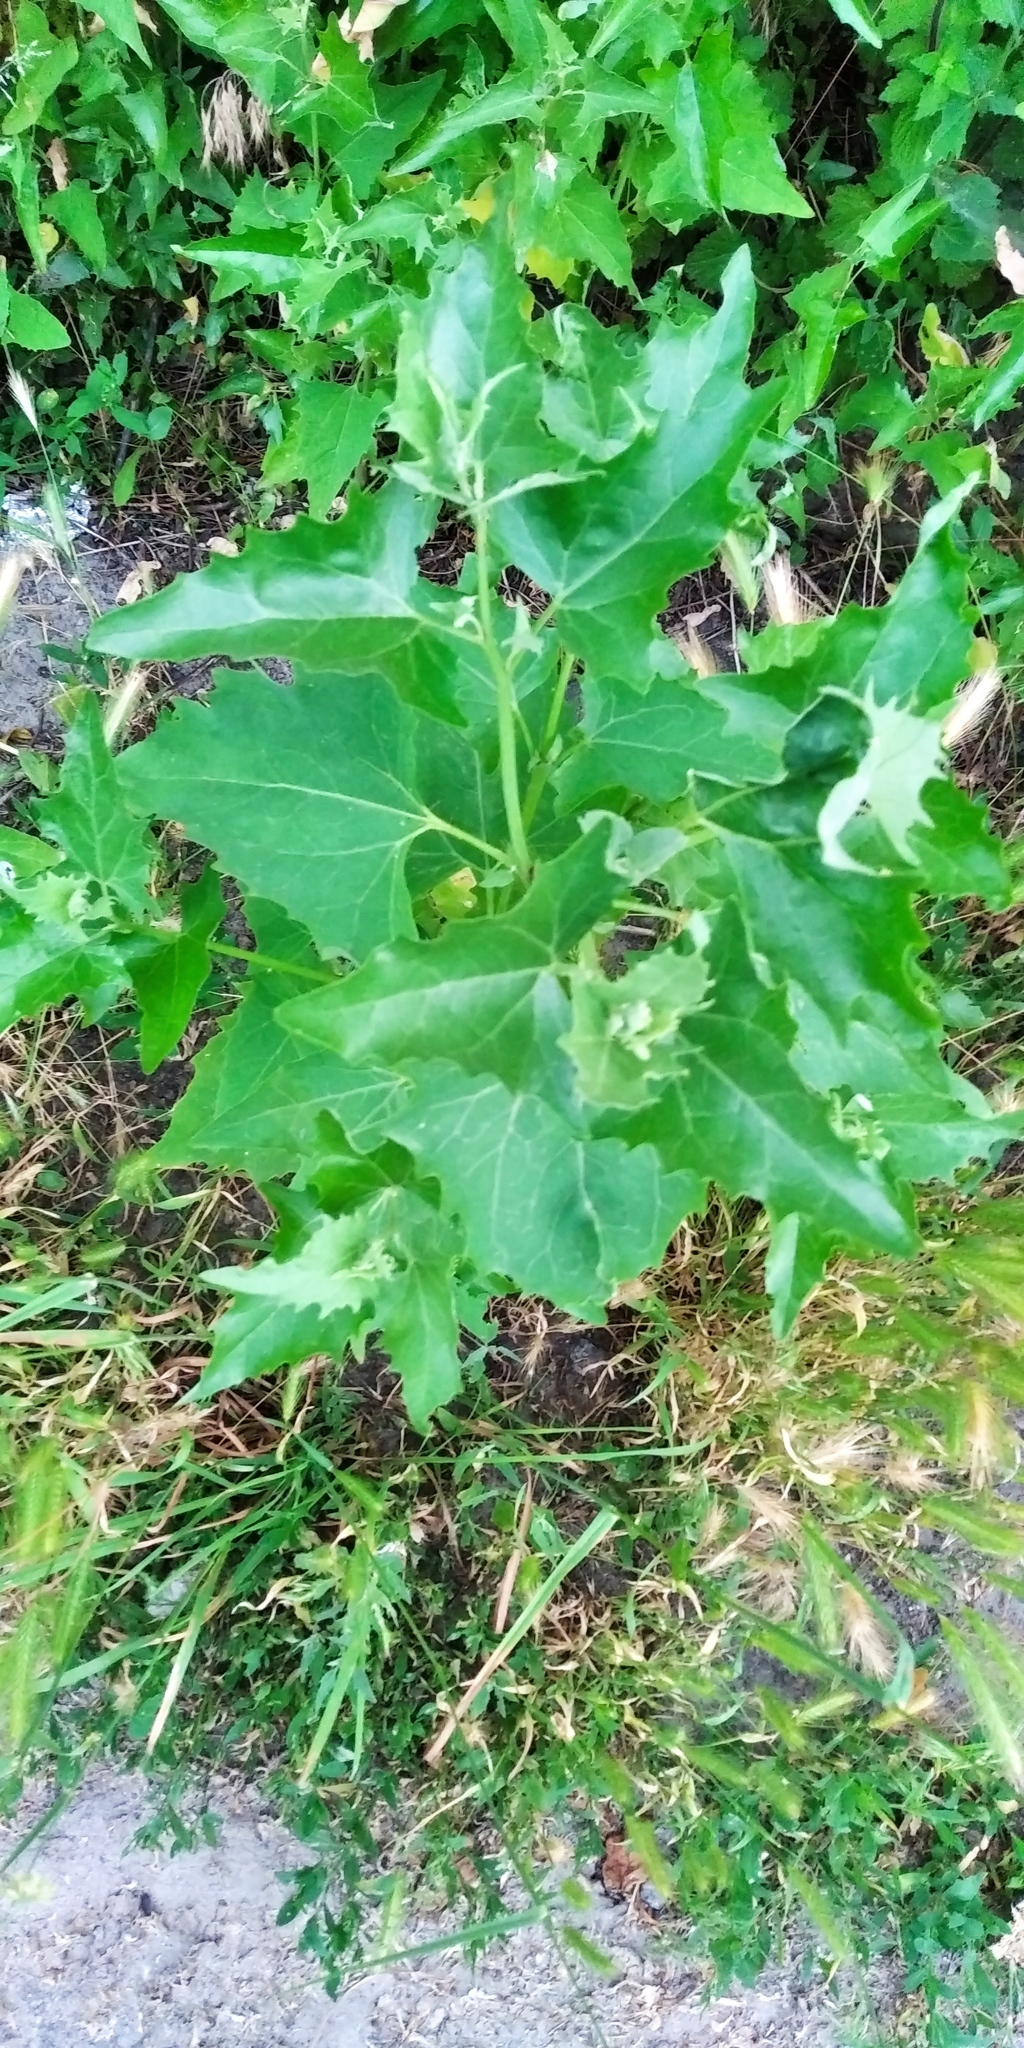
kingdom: Plantae
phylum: Tracheophyta
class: Magnoliopsida
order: Caryophyllales
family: Amaranthaceae
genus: Atriplex
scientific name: Atriplex sagittata
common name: Purple orache
